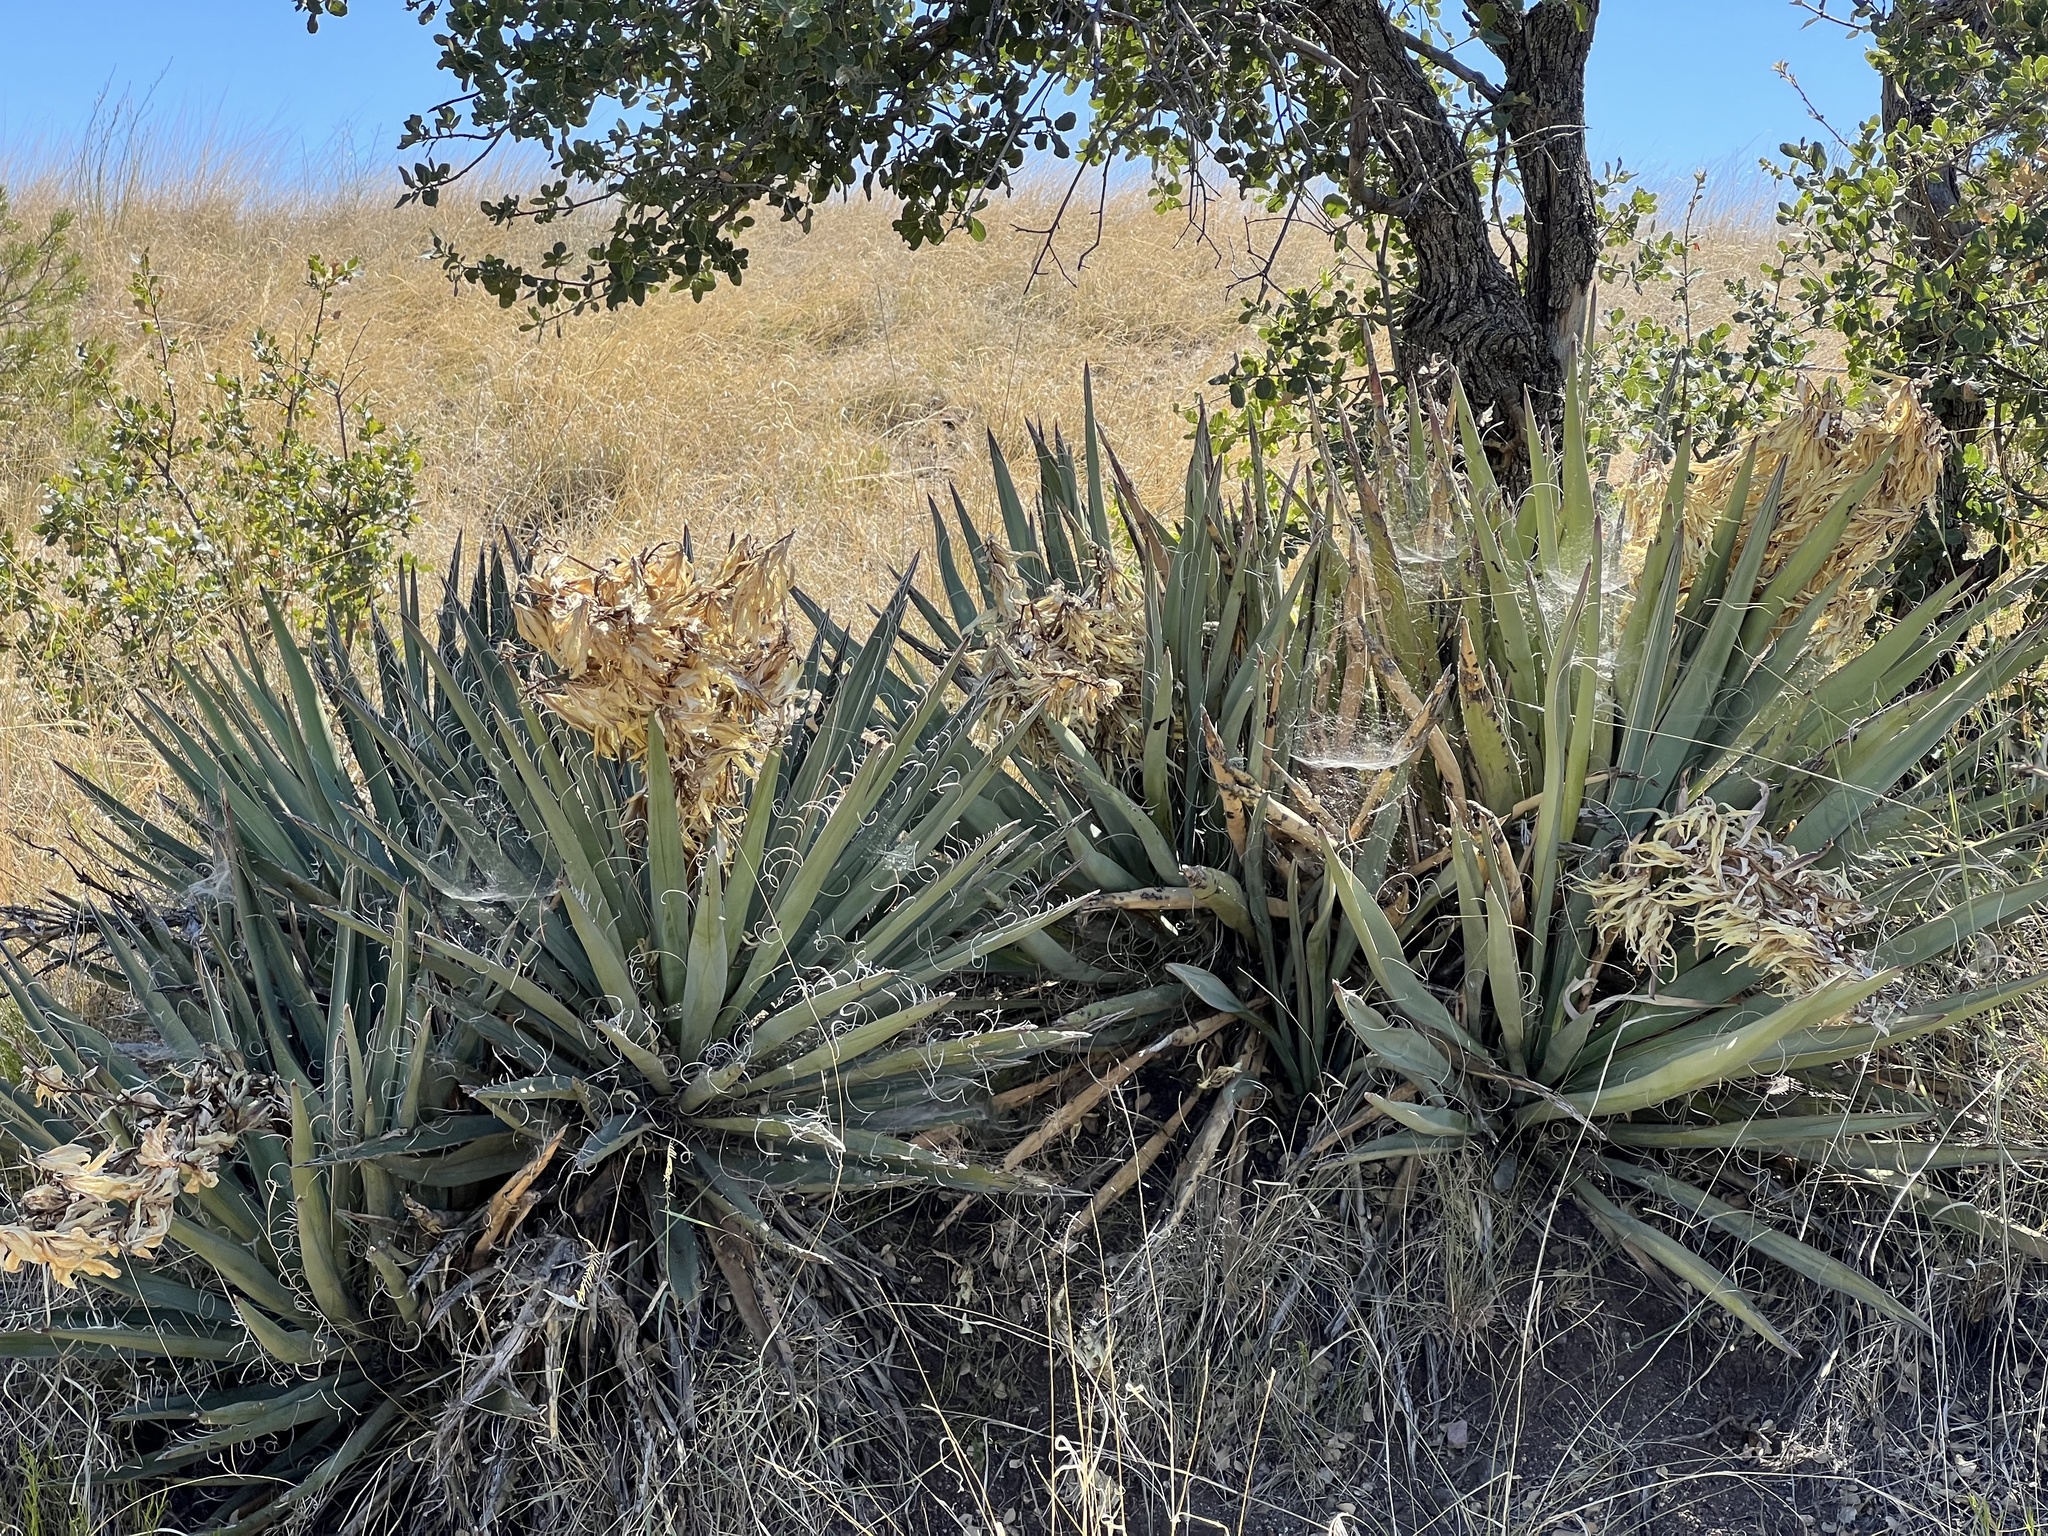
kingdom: Plantae
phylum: Tracheophyta
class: Liliopsida
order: Asparagales
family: Asparagaceae
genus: Yucca
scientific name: Yucca baccata
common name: Banana yucca
